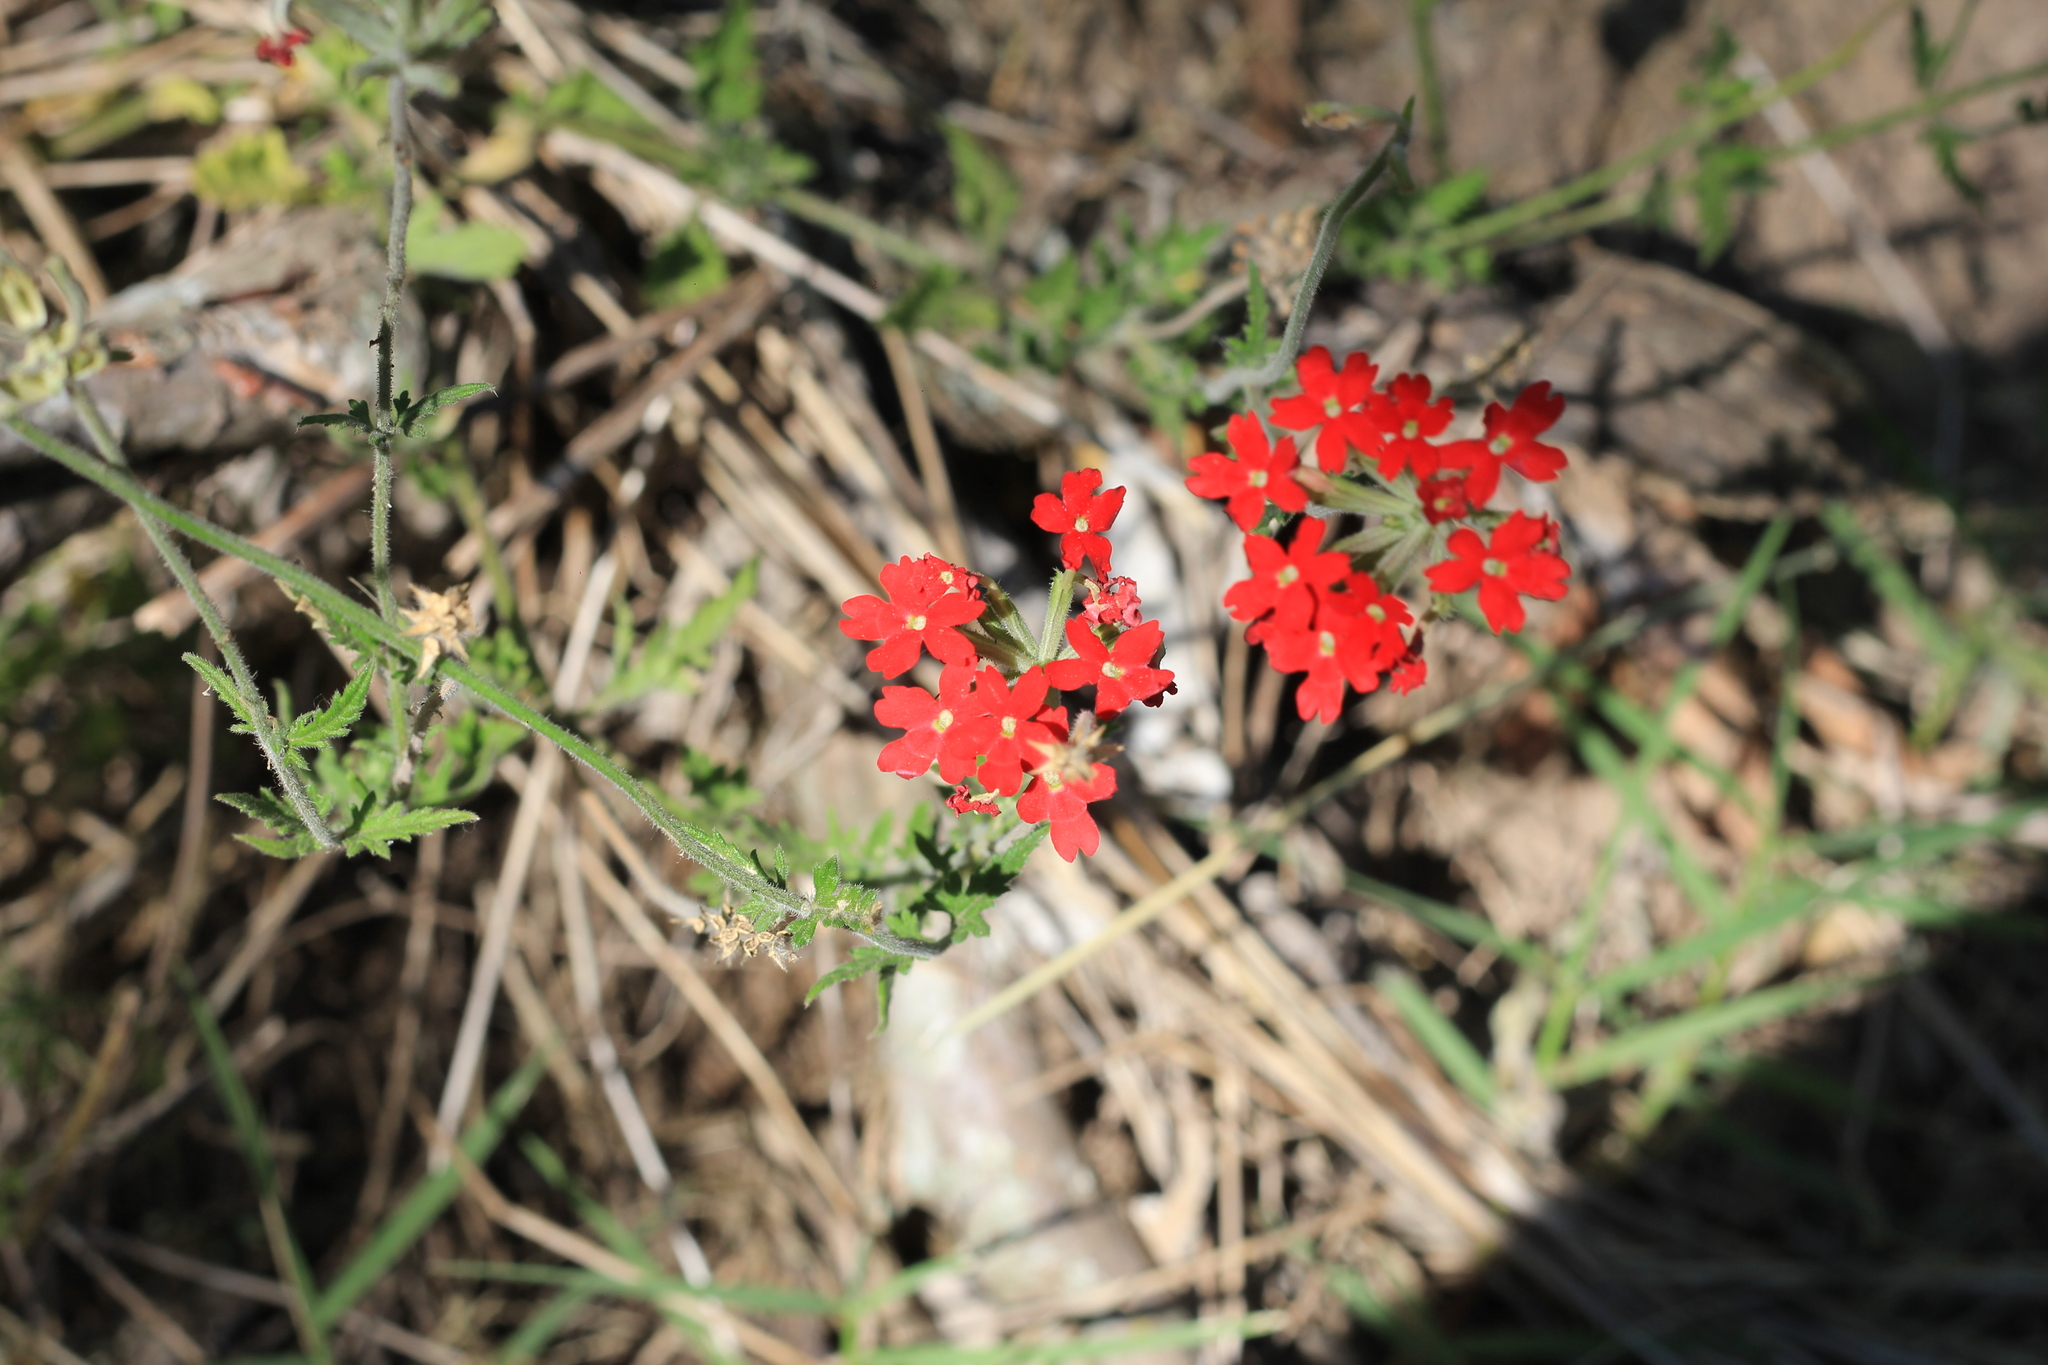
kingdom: Plantae
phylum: Tracheophyta
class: Magnoliopsida
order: Lamiales
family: Verbenaceae
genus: Verbena
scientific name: Verbena peruviana
